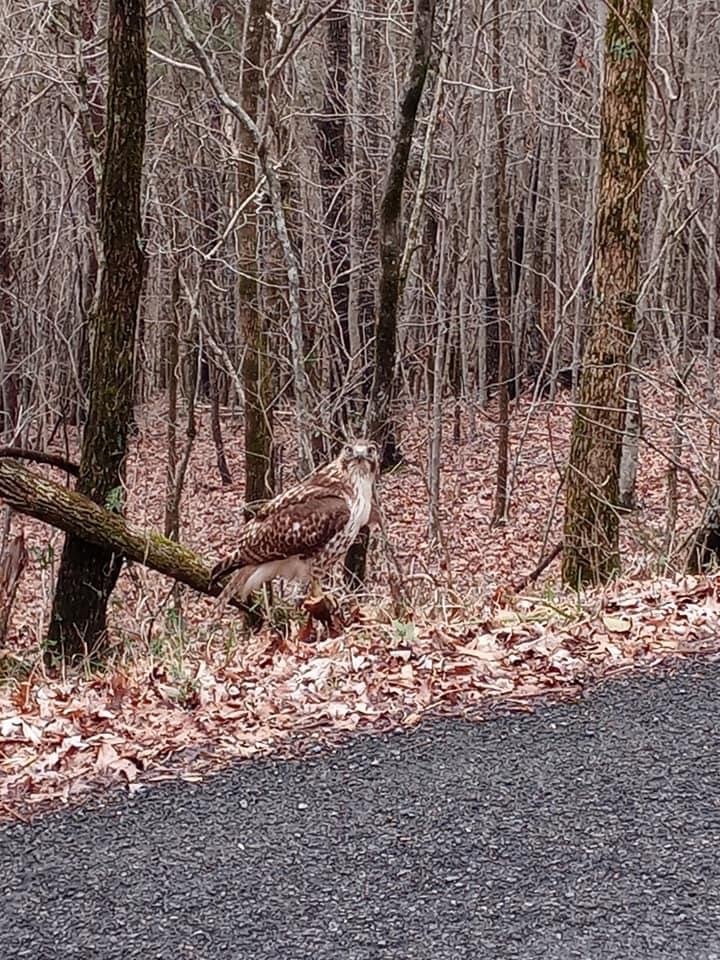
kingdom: Animalia
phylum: Chordata
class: Aves
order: Accipitriformes
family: Accipitridae
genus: Buteo
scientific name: Buteo jamaicensis
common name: Red-tailed hawk
